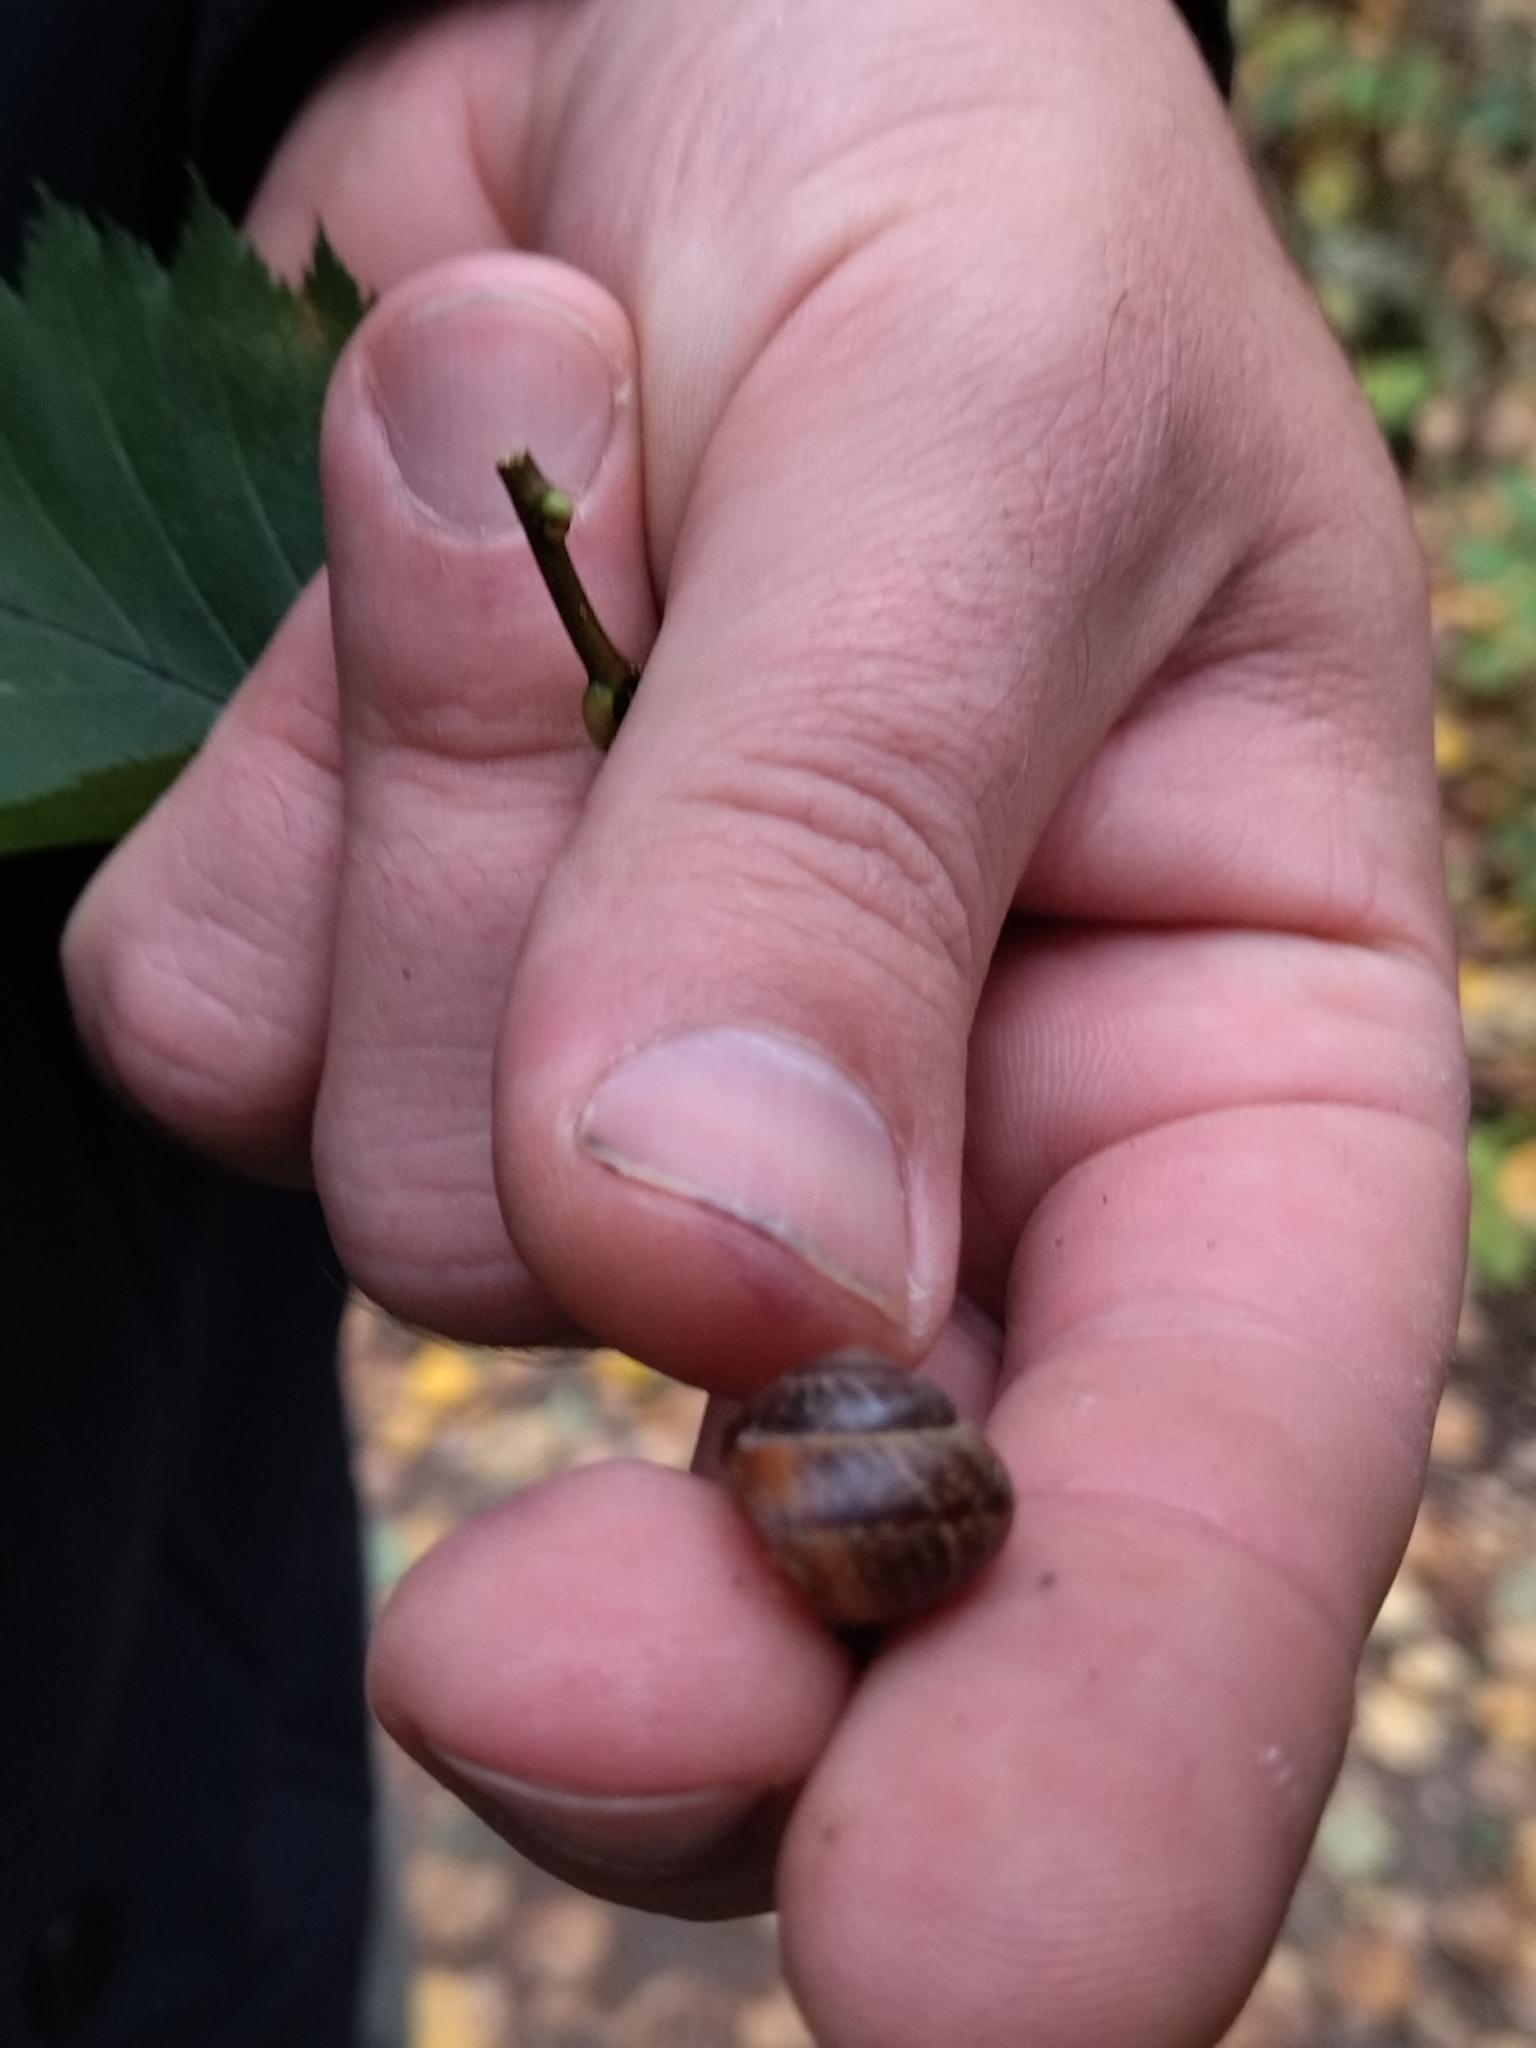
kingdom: Animalia
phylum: Mollusca
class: Gastropoda
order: Stylommatophora
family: Helicidae
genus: Arianta
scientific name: Arianta arbustorum
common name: Copse snail
